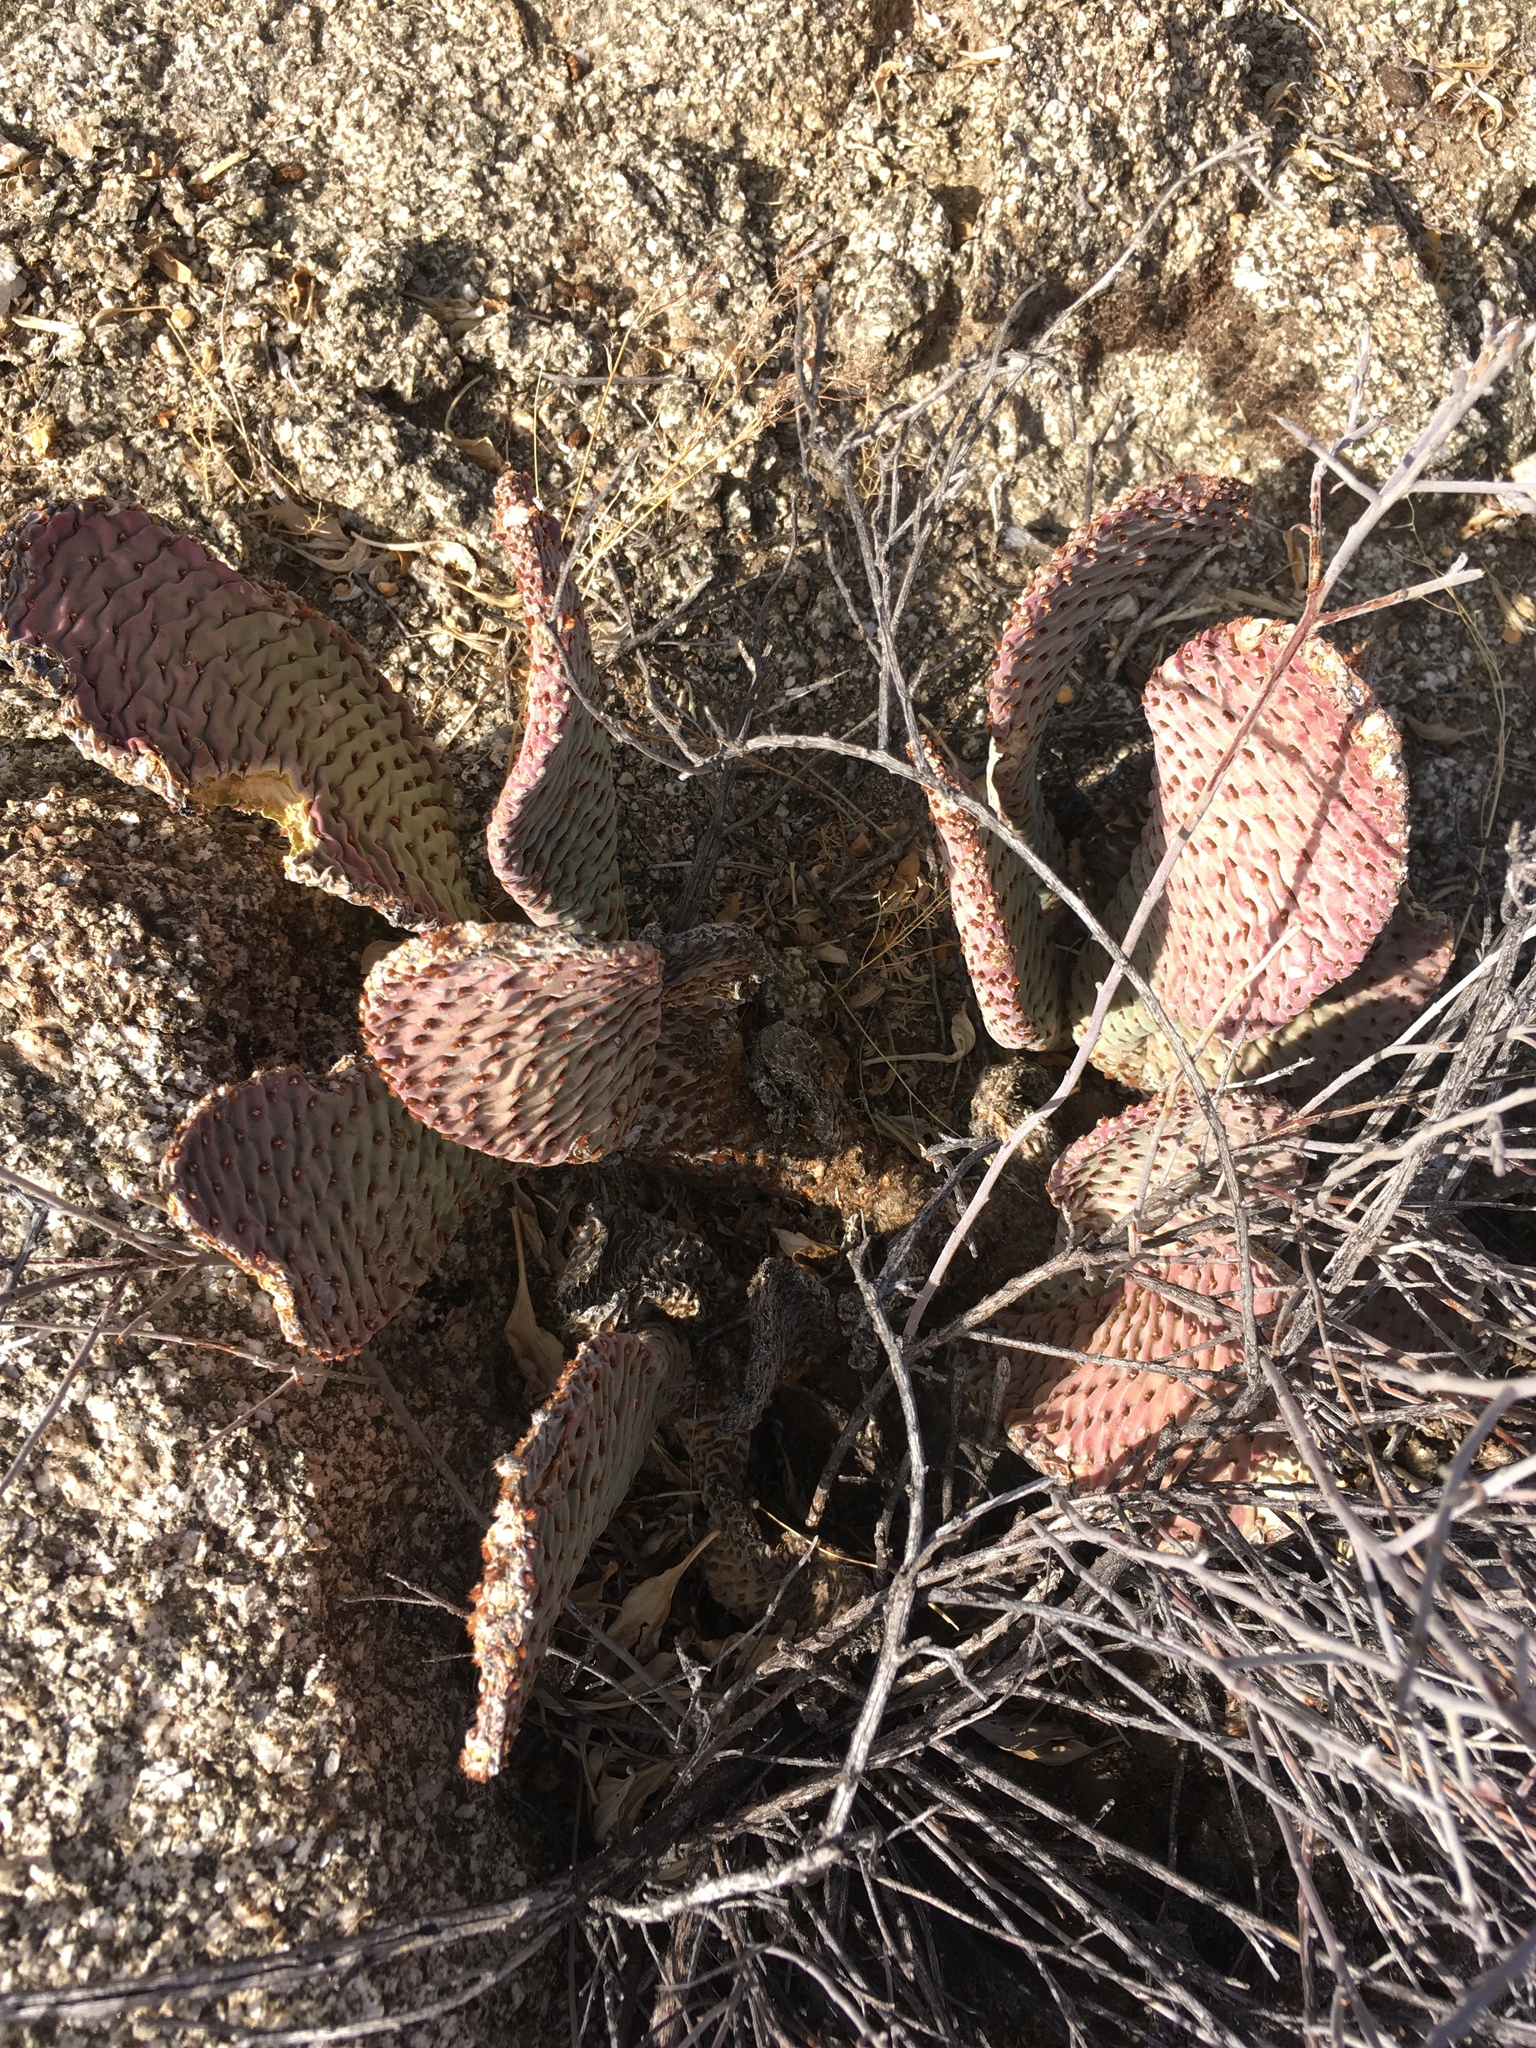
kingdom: Plantae
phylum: Tracheophyta
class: Magnoliopsida
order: Caryophyllales
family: Cactaceae
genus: Opuntia
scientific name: Opuntia basilaris
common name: Beavertail prickly-pear
